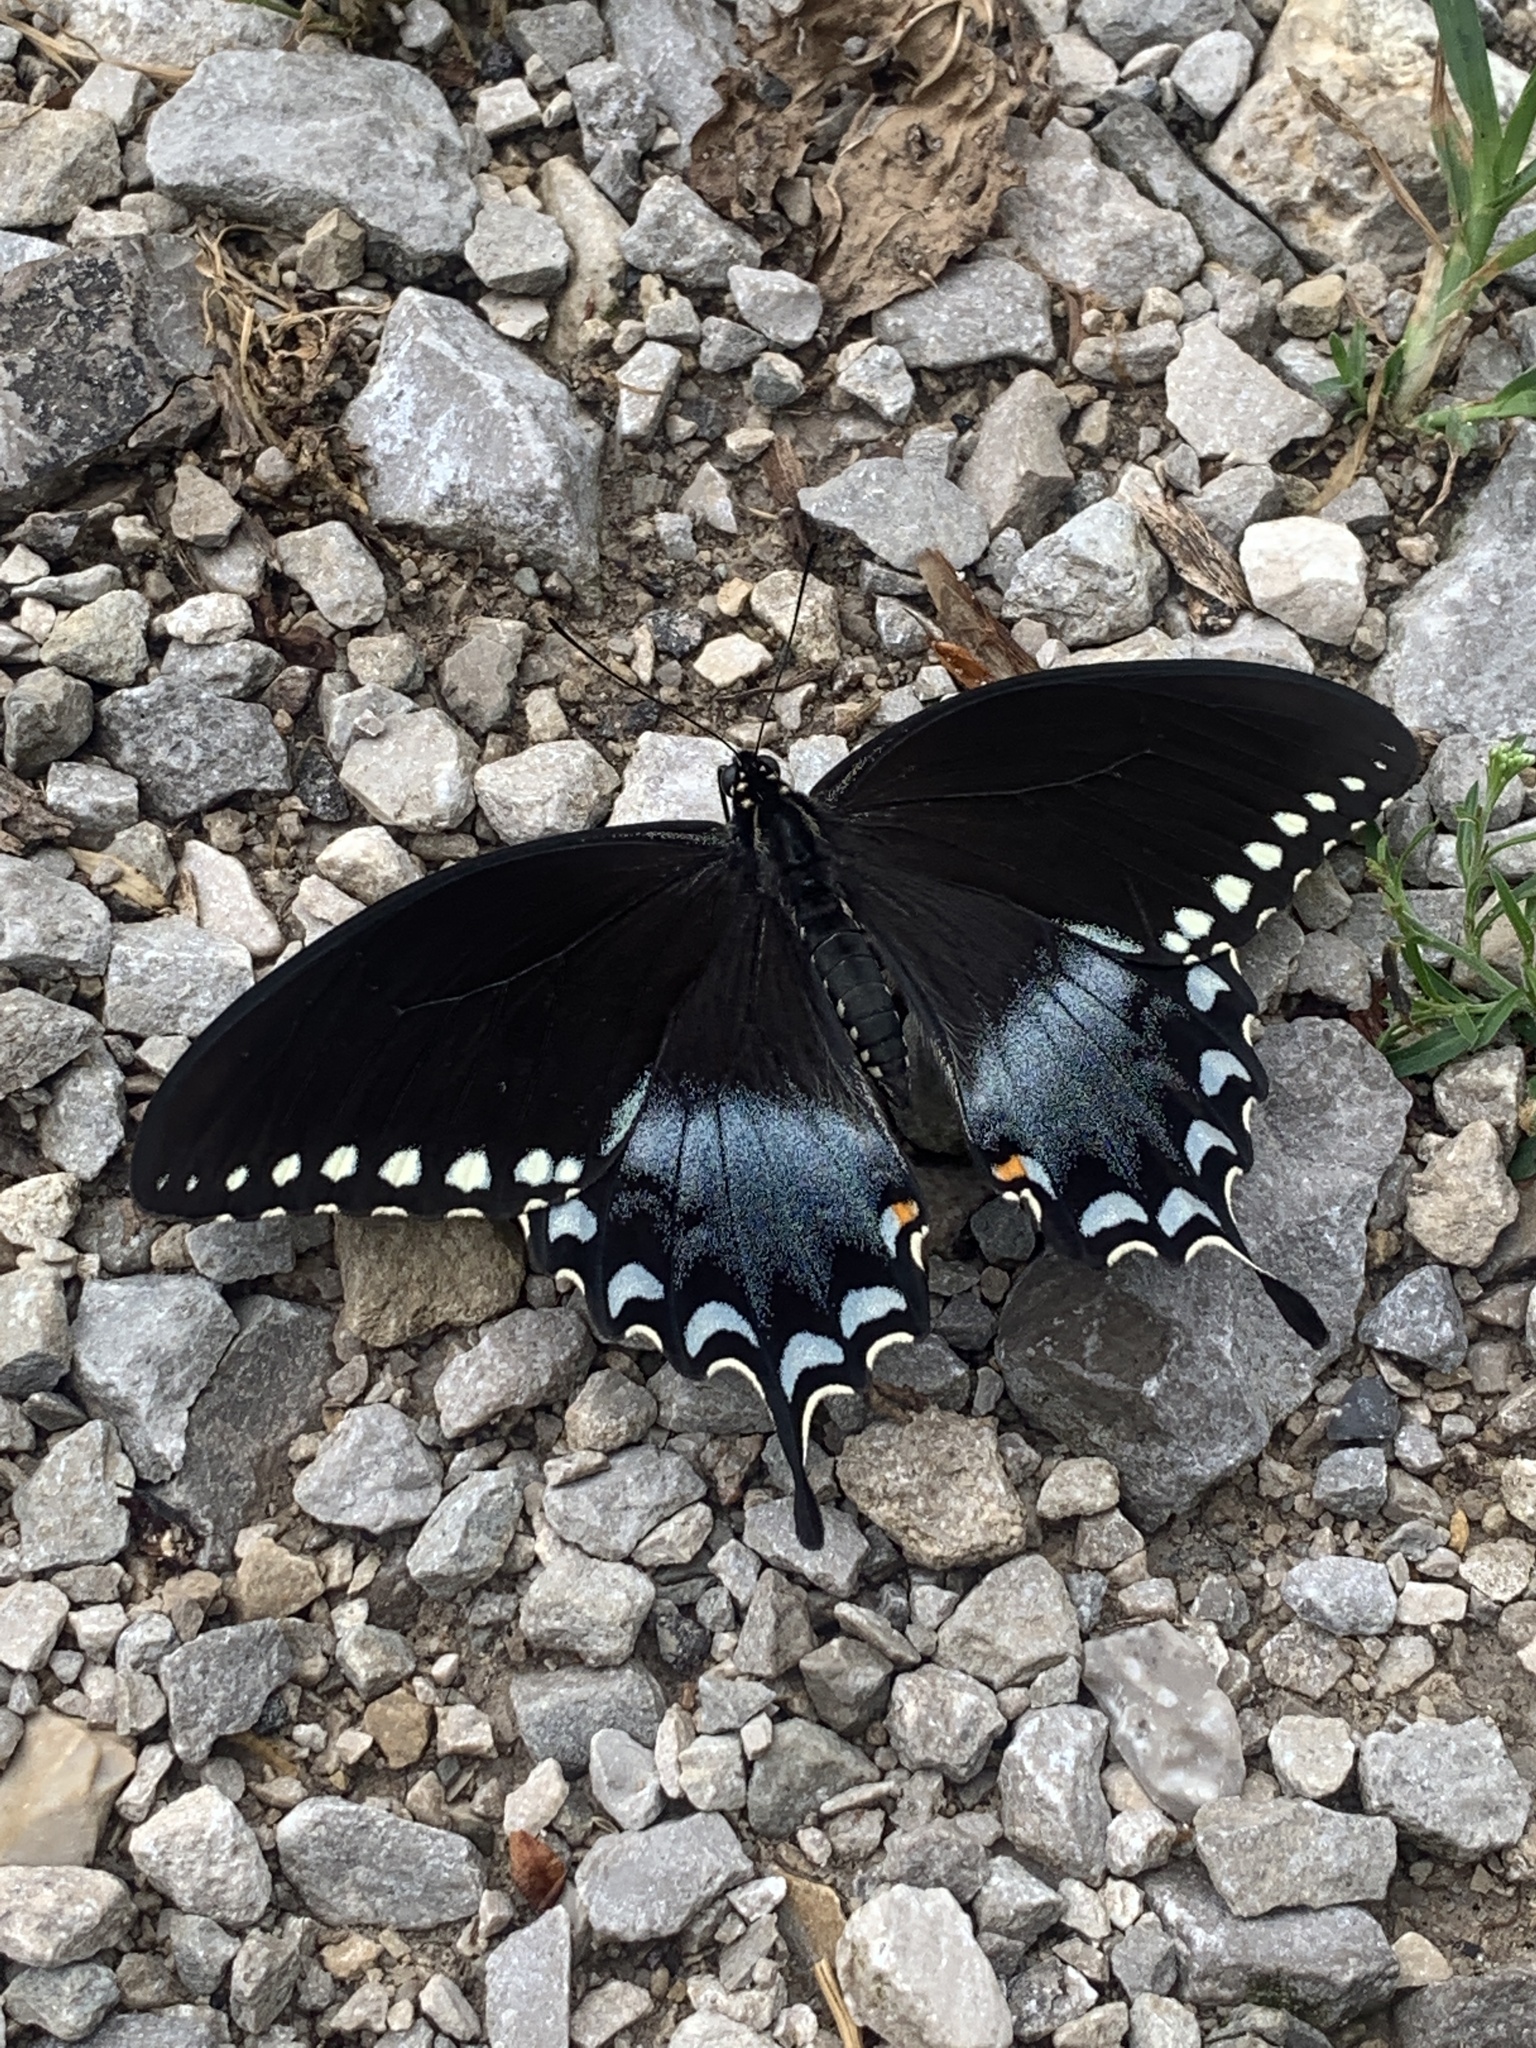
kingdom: Animalia
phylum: Arthropoda
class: Insecta
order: Lepidoptera
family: Papilionidae
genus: Papilio
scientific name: Papilio troilus
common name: Spicebush swallowtail
